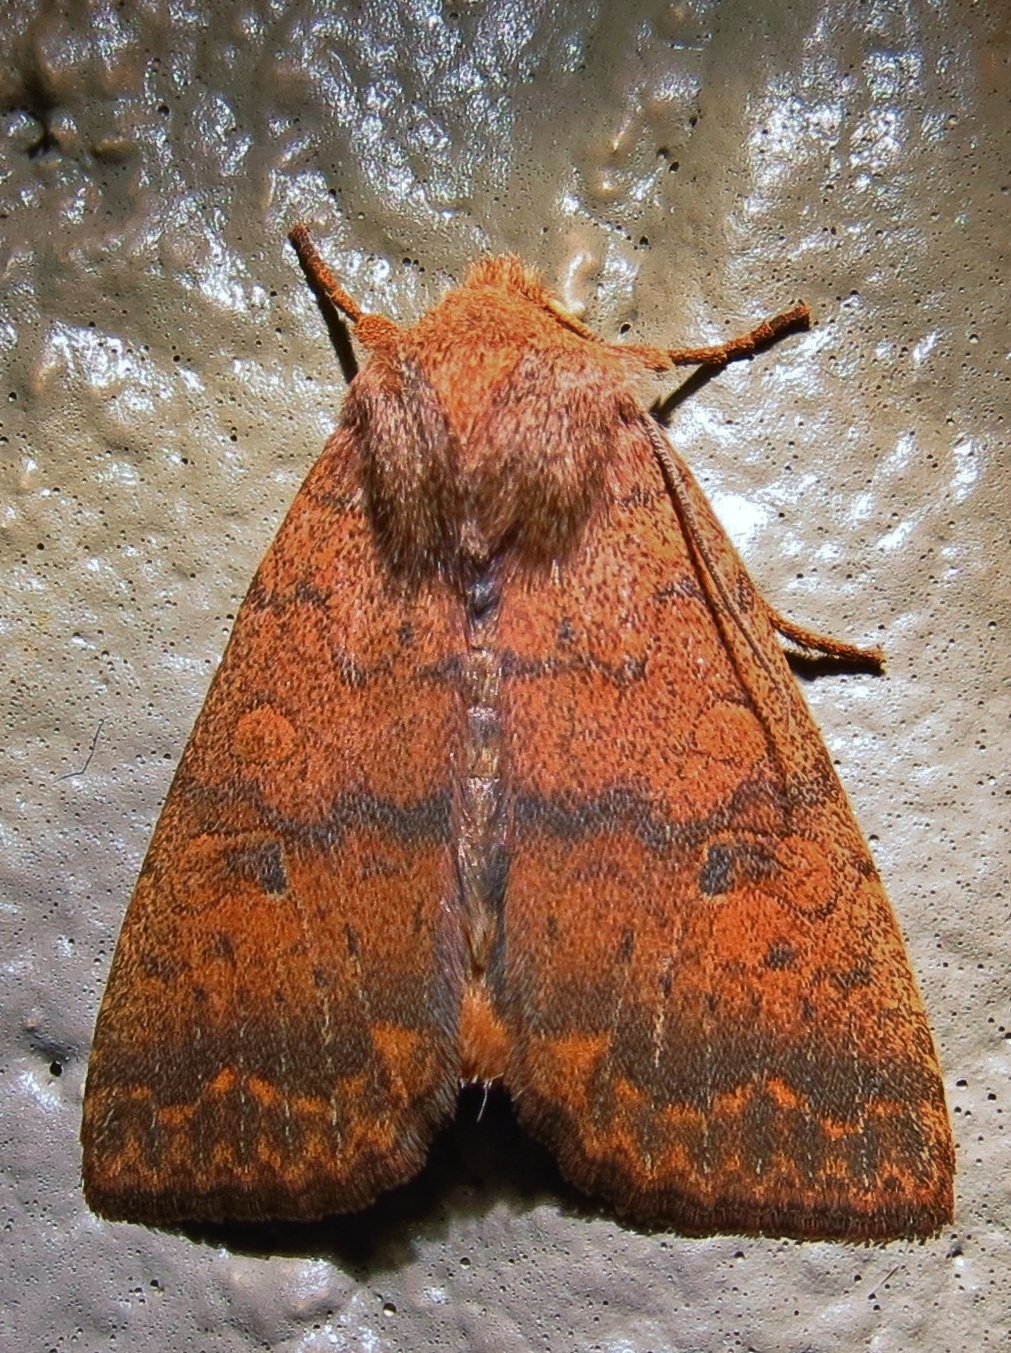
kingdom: Animalia
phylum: Arthropoda
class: Insecta
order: Lepidoptera
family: Noctuidae
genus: Agrochola
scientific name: Agrochola bicolorago
